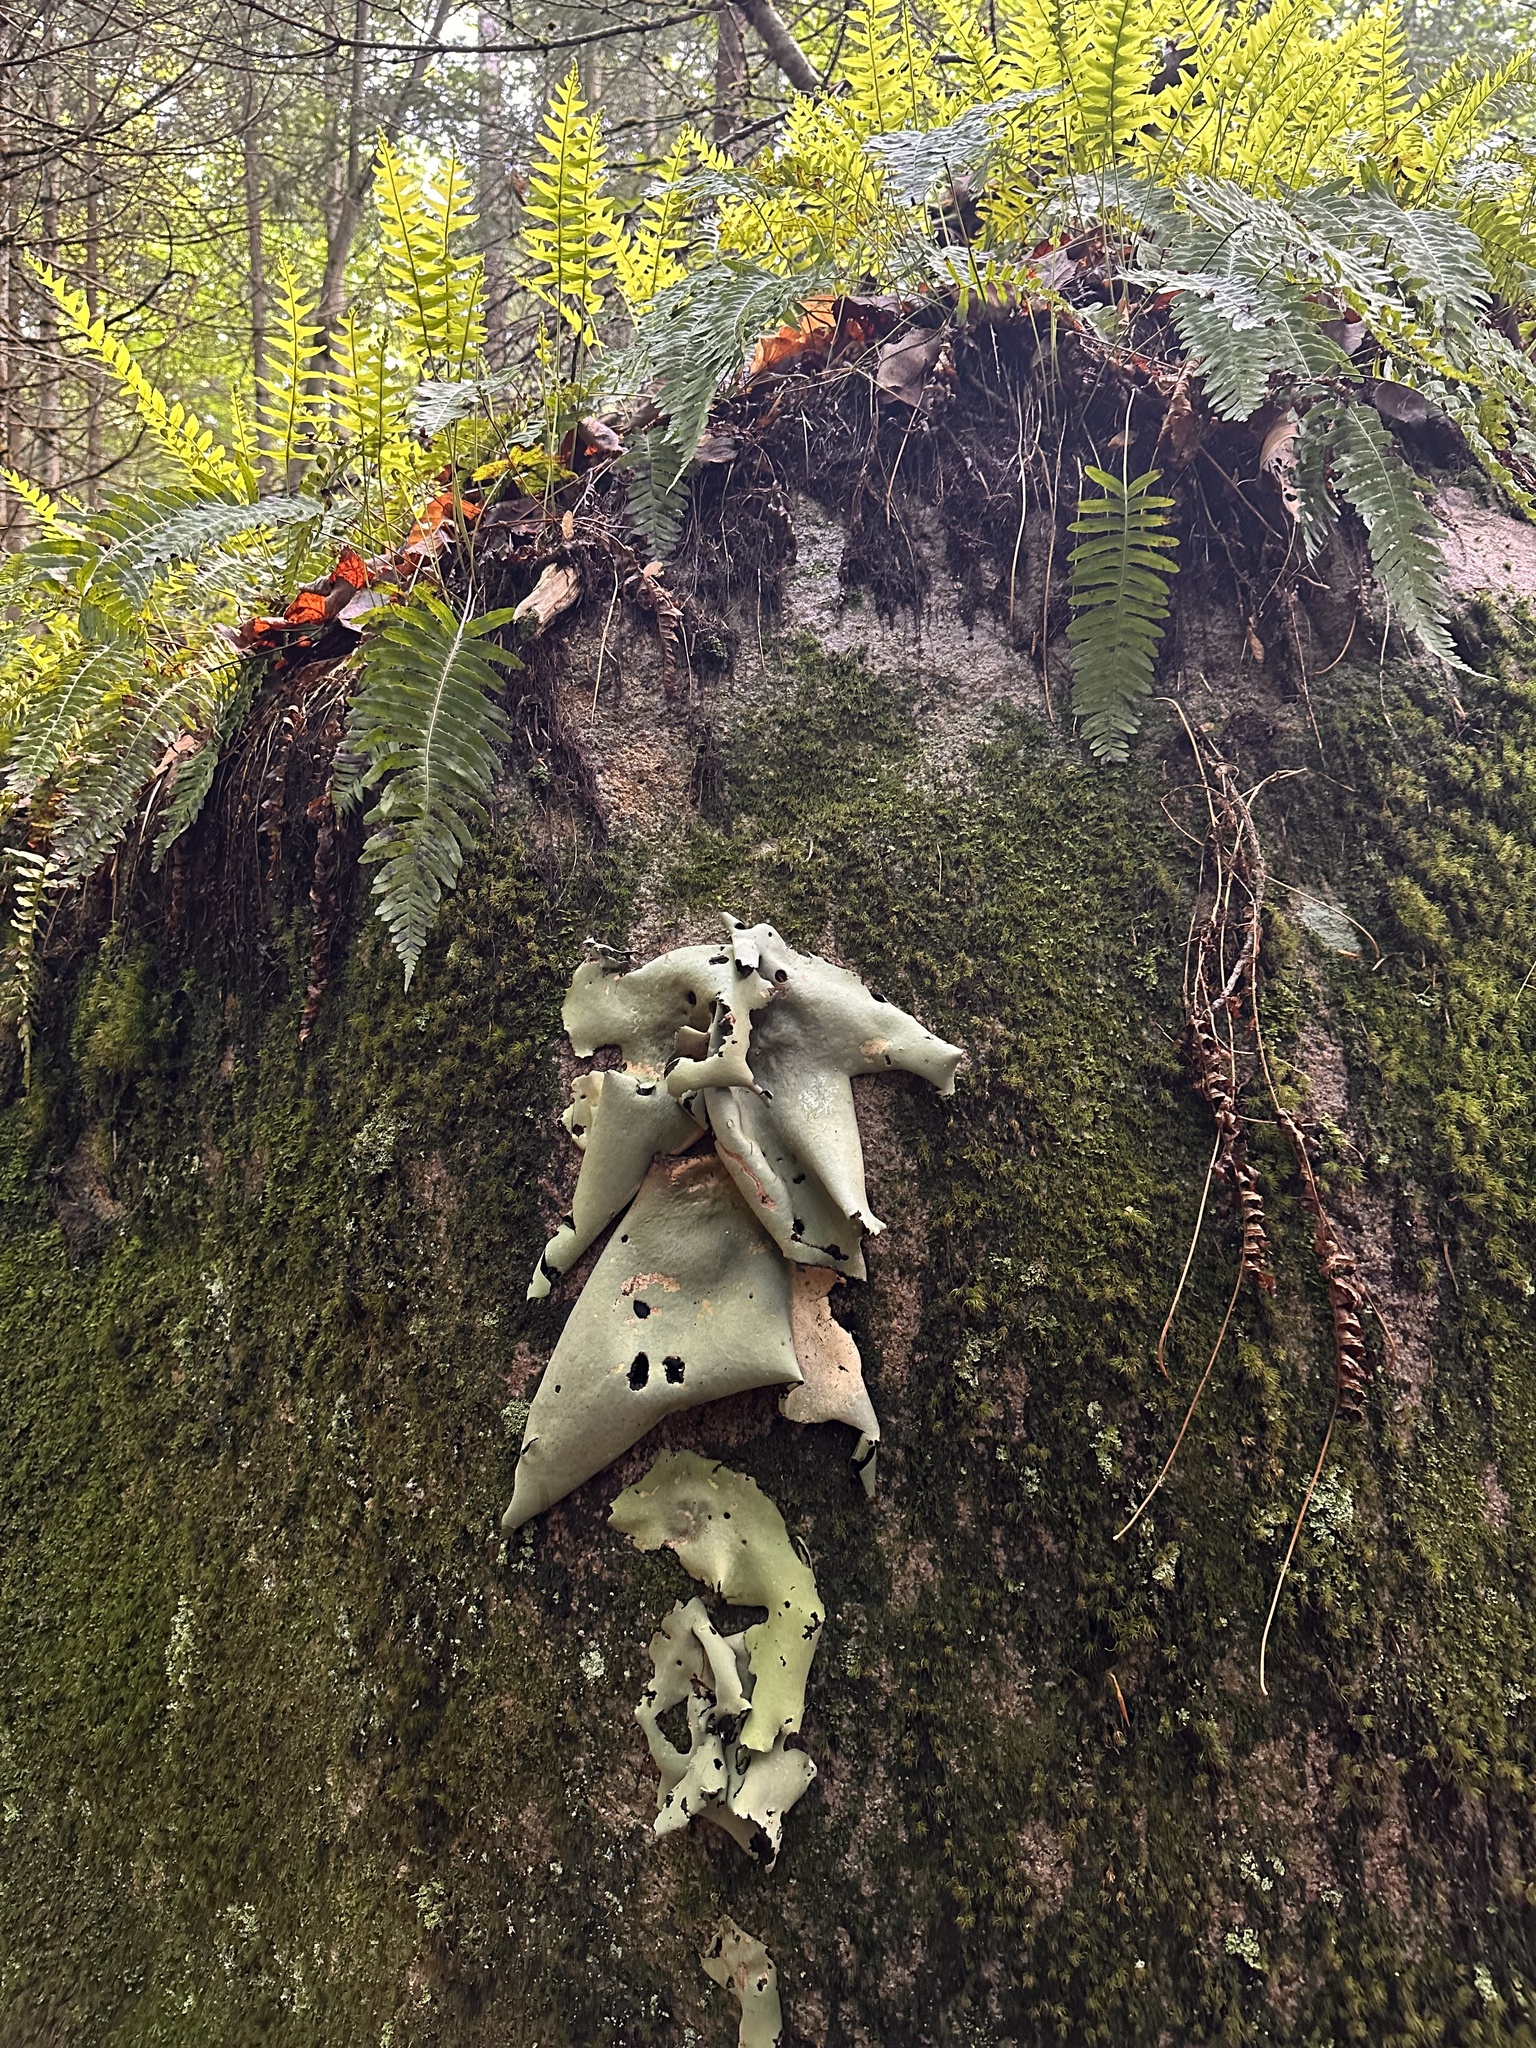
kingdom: Fungi
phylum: Ascomycota
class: Lecanoromycetes
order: Umbilicariales
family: Umbilicariaceae
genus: Umbilicaria
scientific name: Umbilicaria mammulata
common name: Smooth rock tripe
